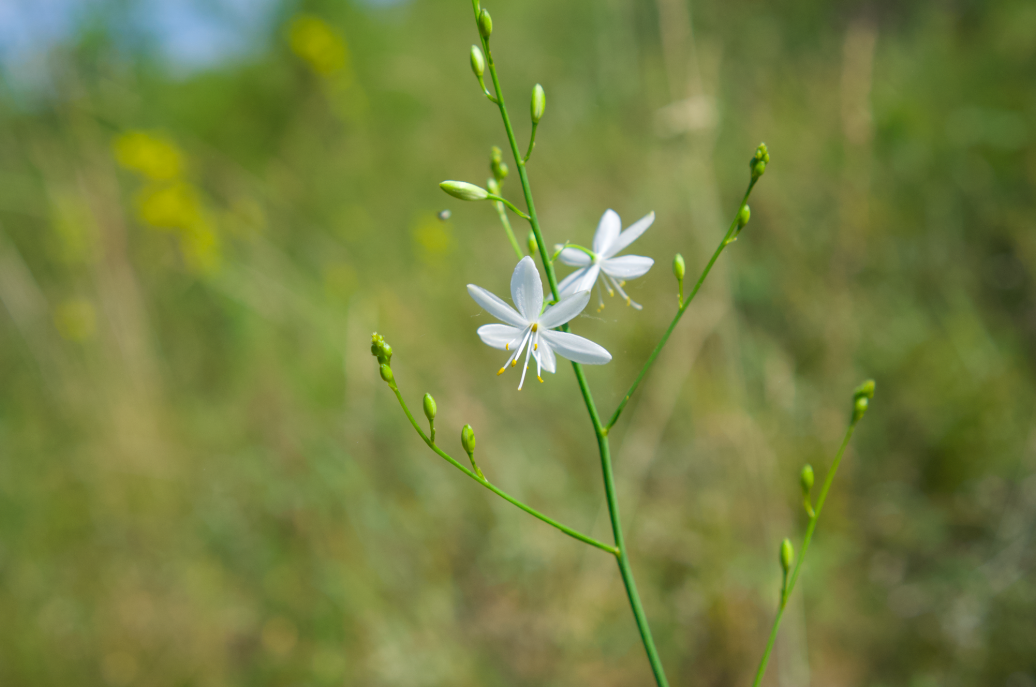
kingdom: Plantae
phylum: Tracheophyta
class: Liliopsida
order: Asparagales
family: Asparagaceae
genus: Anthericum
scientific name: Anthericum ramosum
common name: Branched st. bernard's-lily
